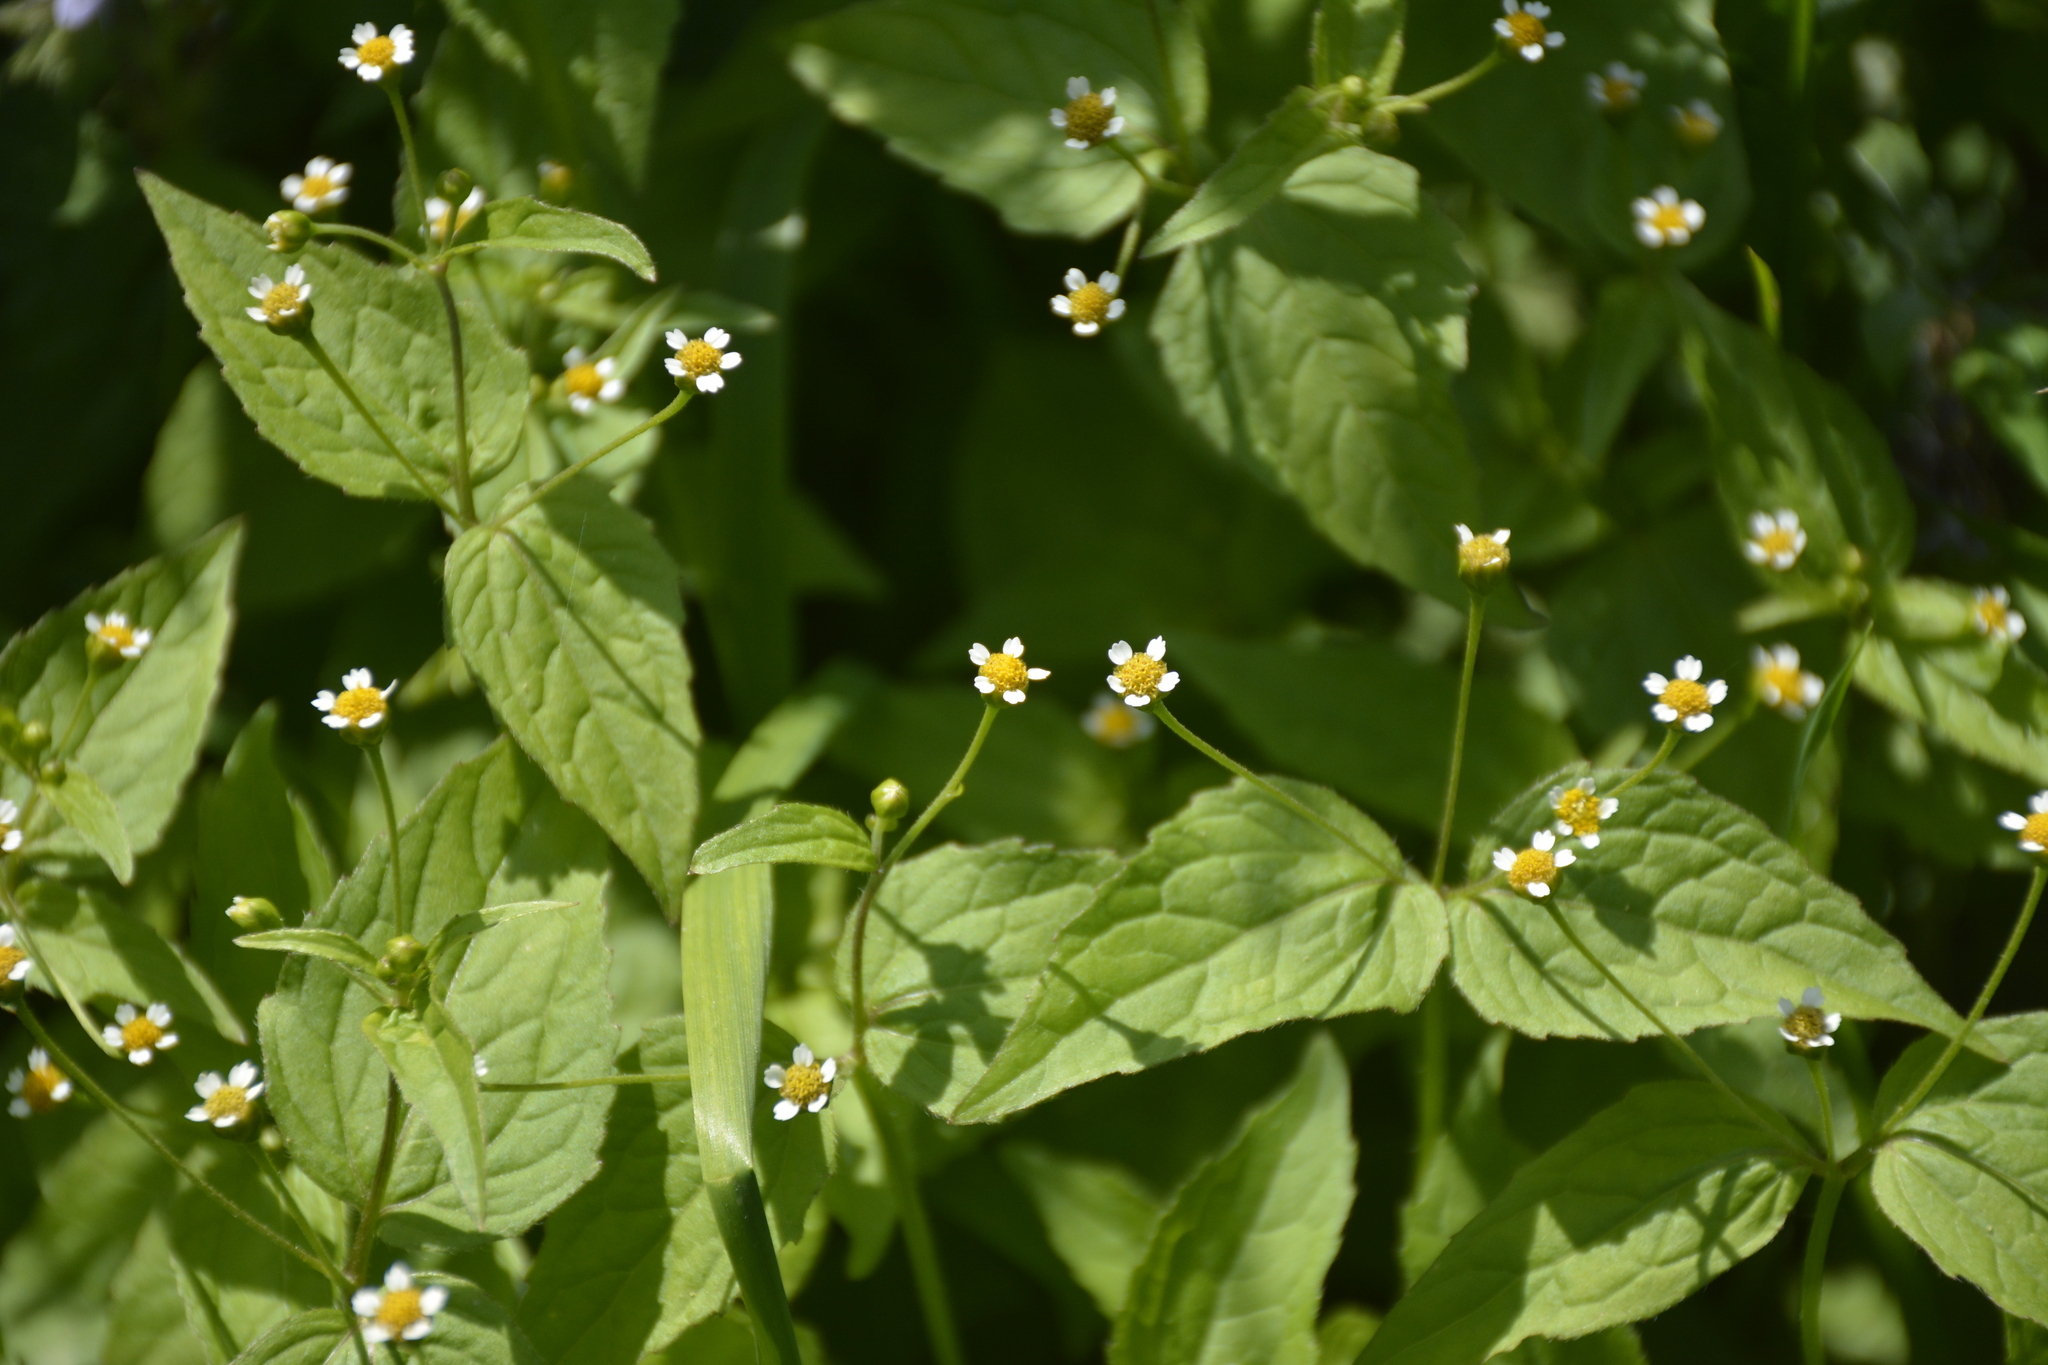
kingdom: Plantae
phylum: Tracheophyta
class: Magnoliopsida
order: Asterales
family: Asteraceae
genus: Galinsoga
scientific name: Galinsoga parviflora
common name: Gallant soldier
